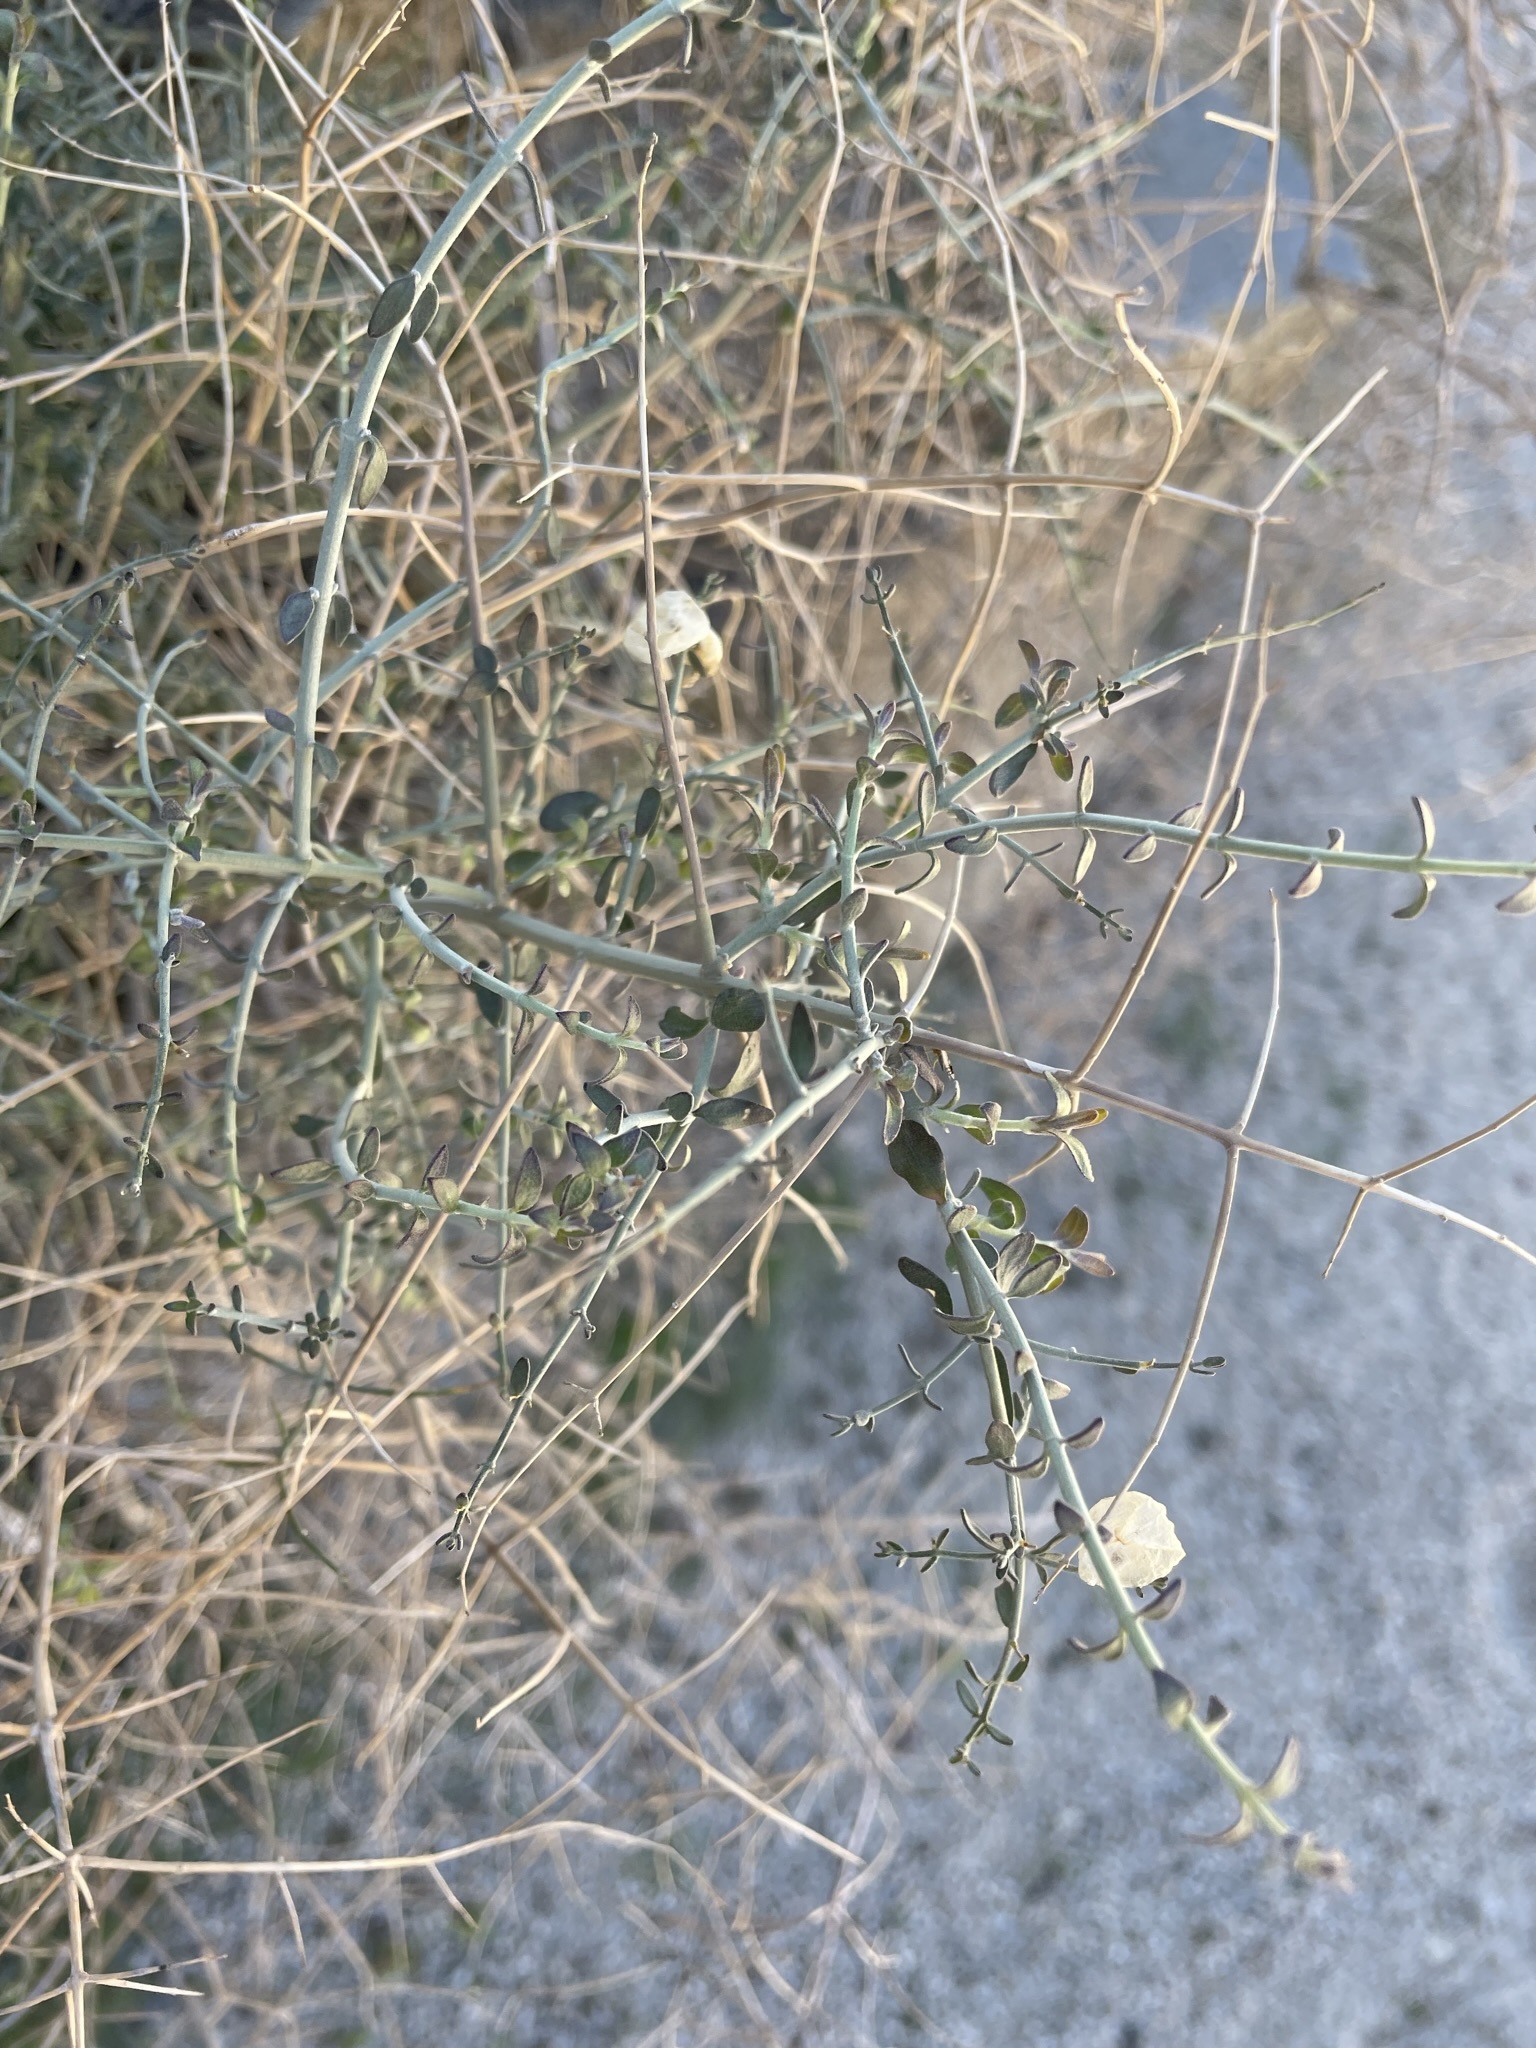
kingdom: Plantae
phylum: Tracheophyta
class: Magnoliopsida
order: Lamiales
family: Lamiaceae
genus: Scutellaria
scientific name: Scutellaria mexicana
